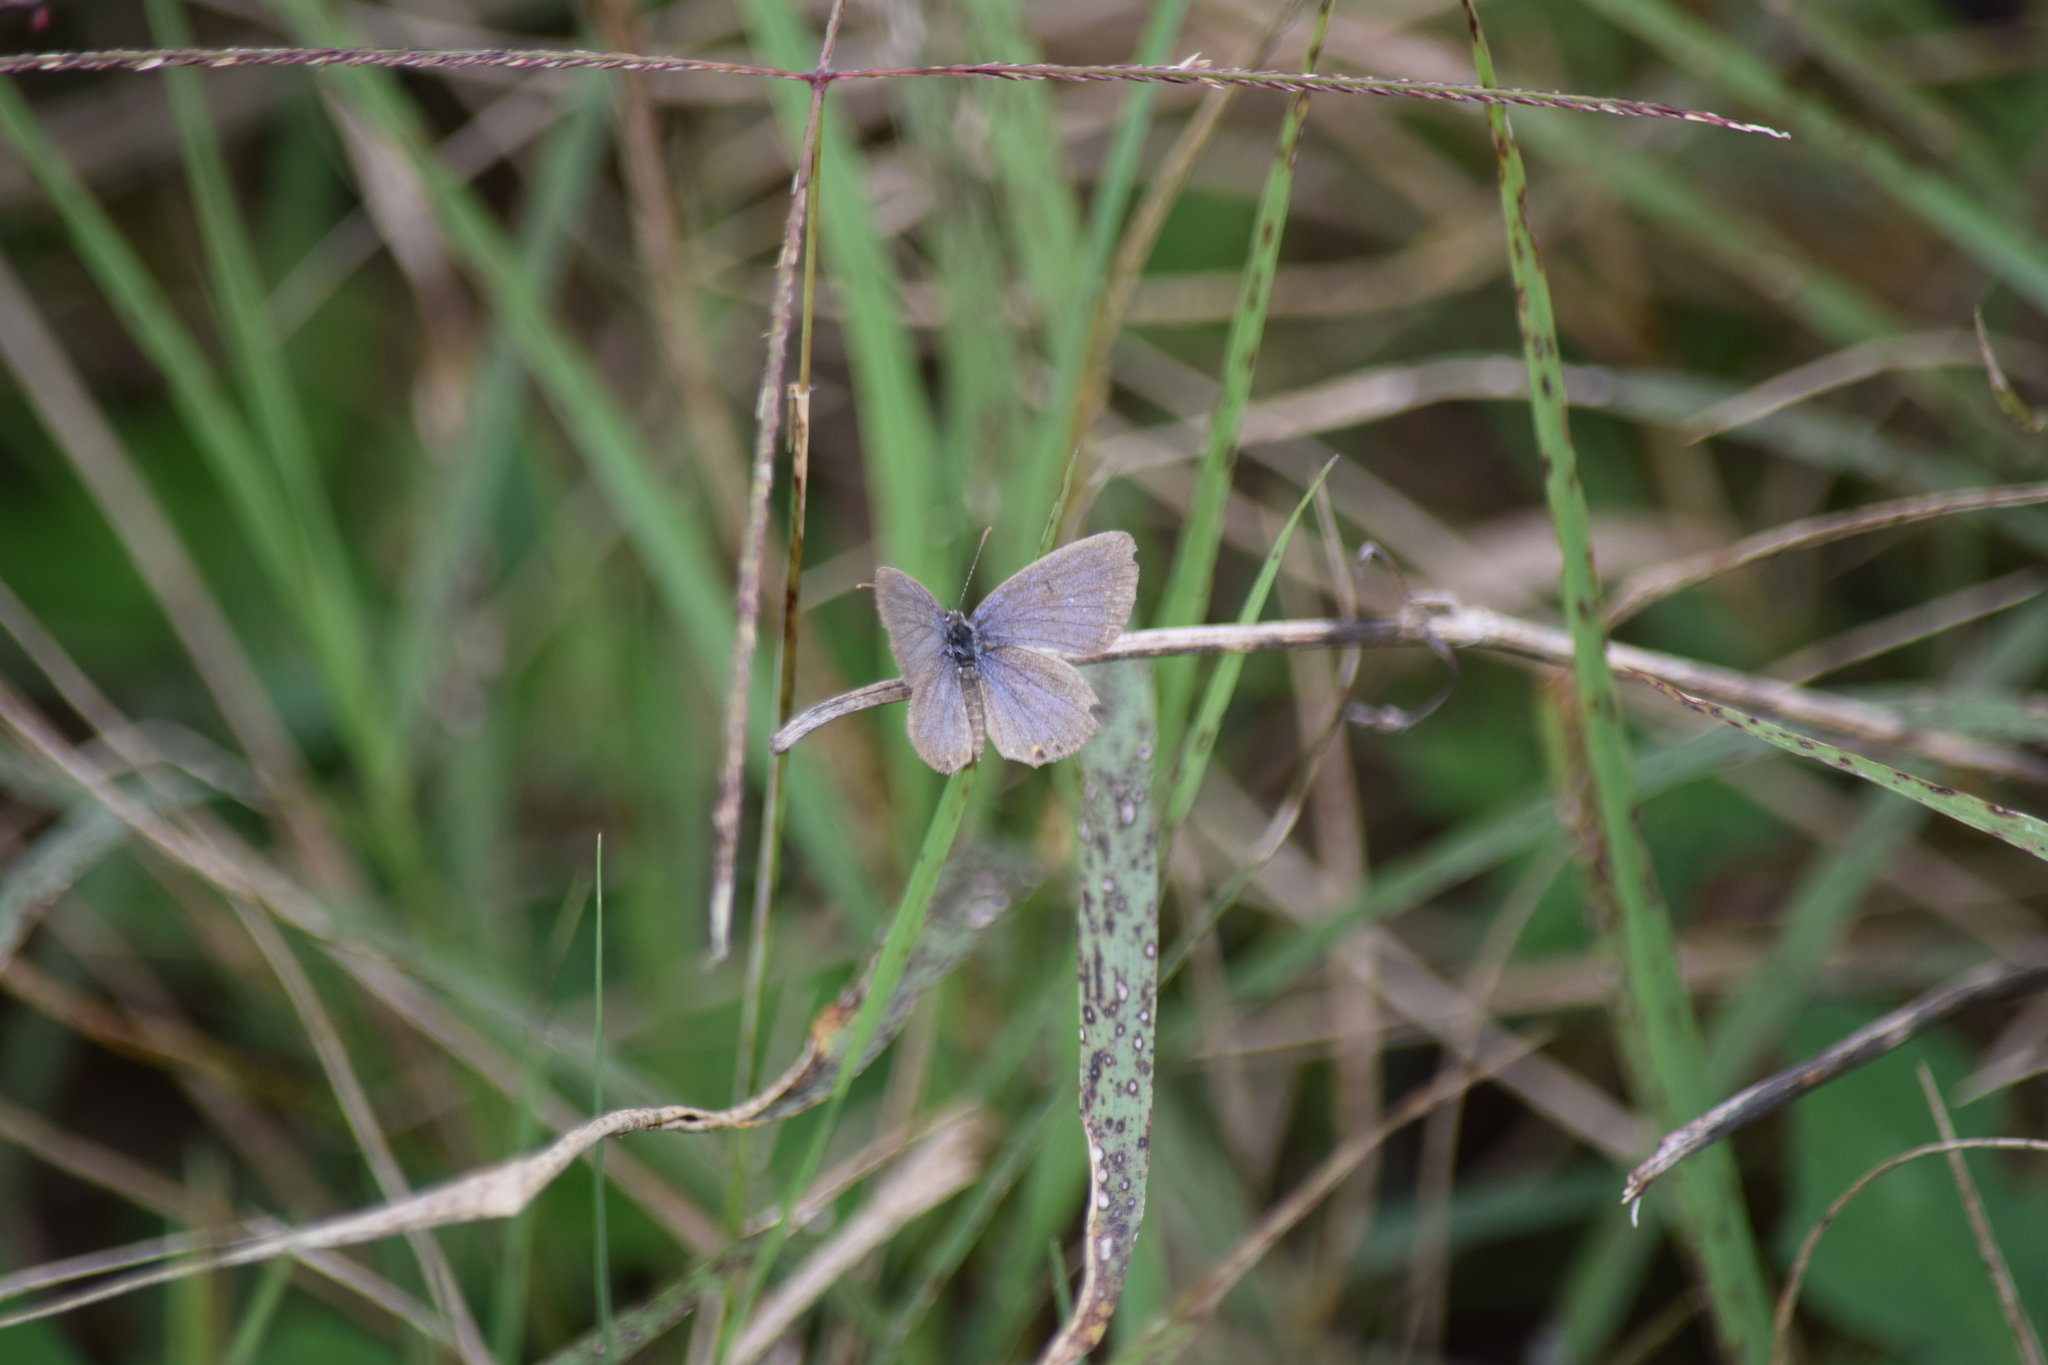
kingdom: Animalia
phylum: Arthropoda
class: Insecta
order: Lepidoptera
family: Lycaenidae
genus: Elkalyce
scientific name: Elkalyce comyntas
